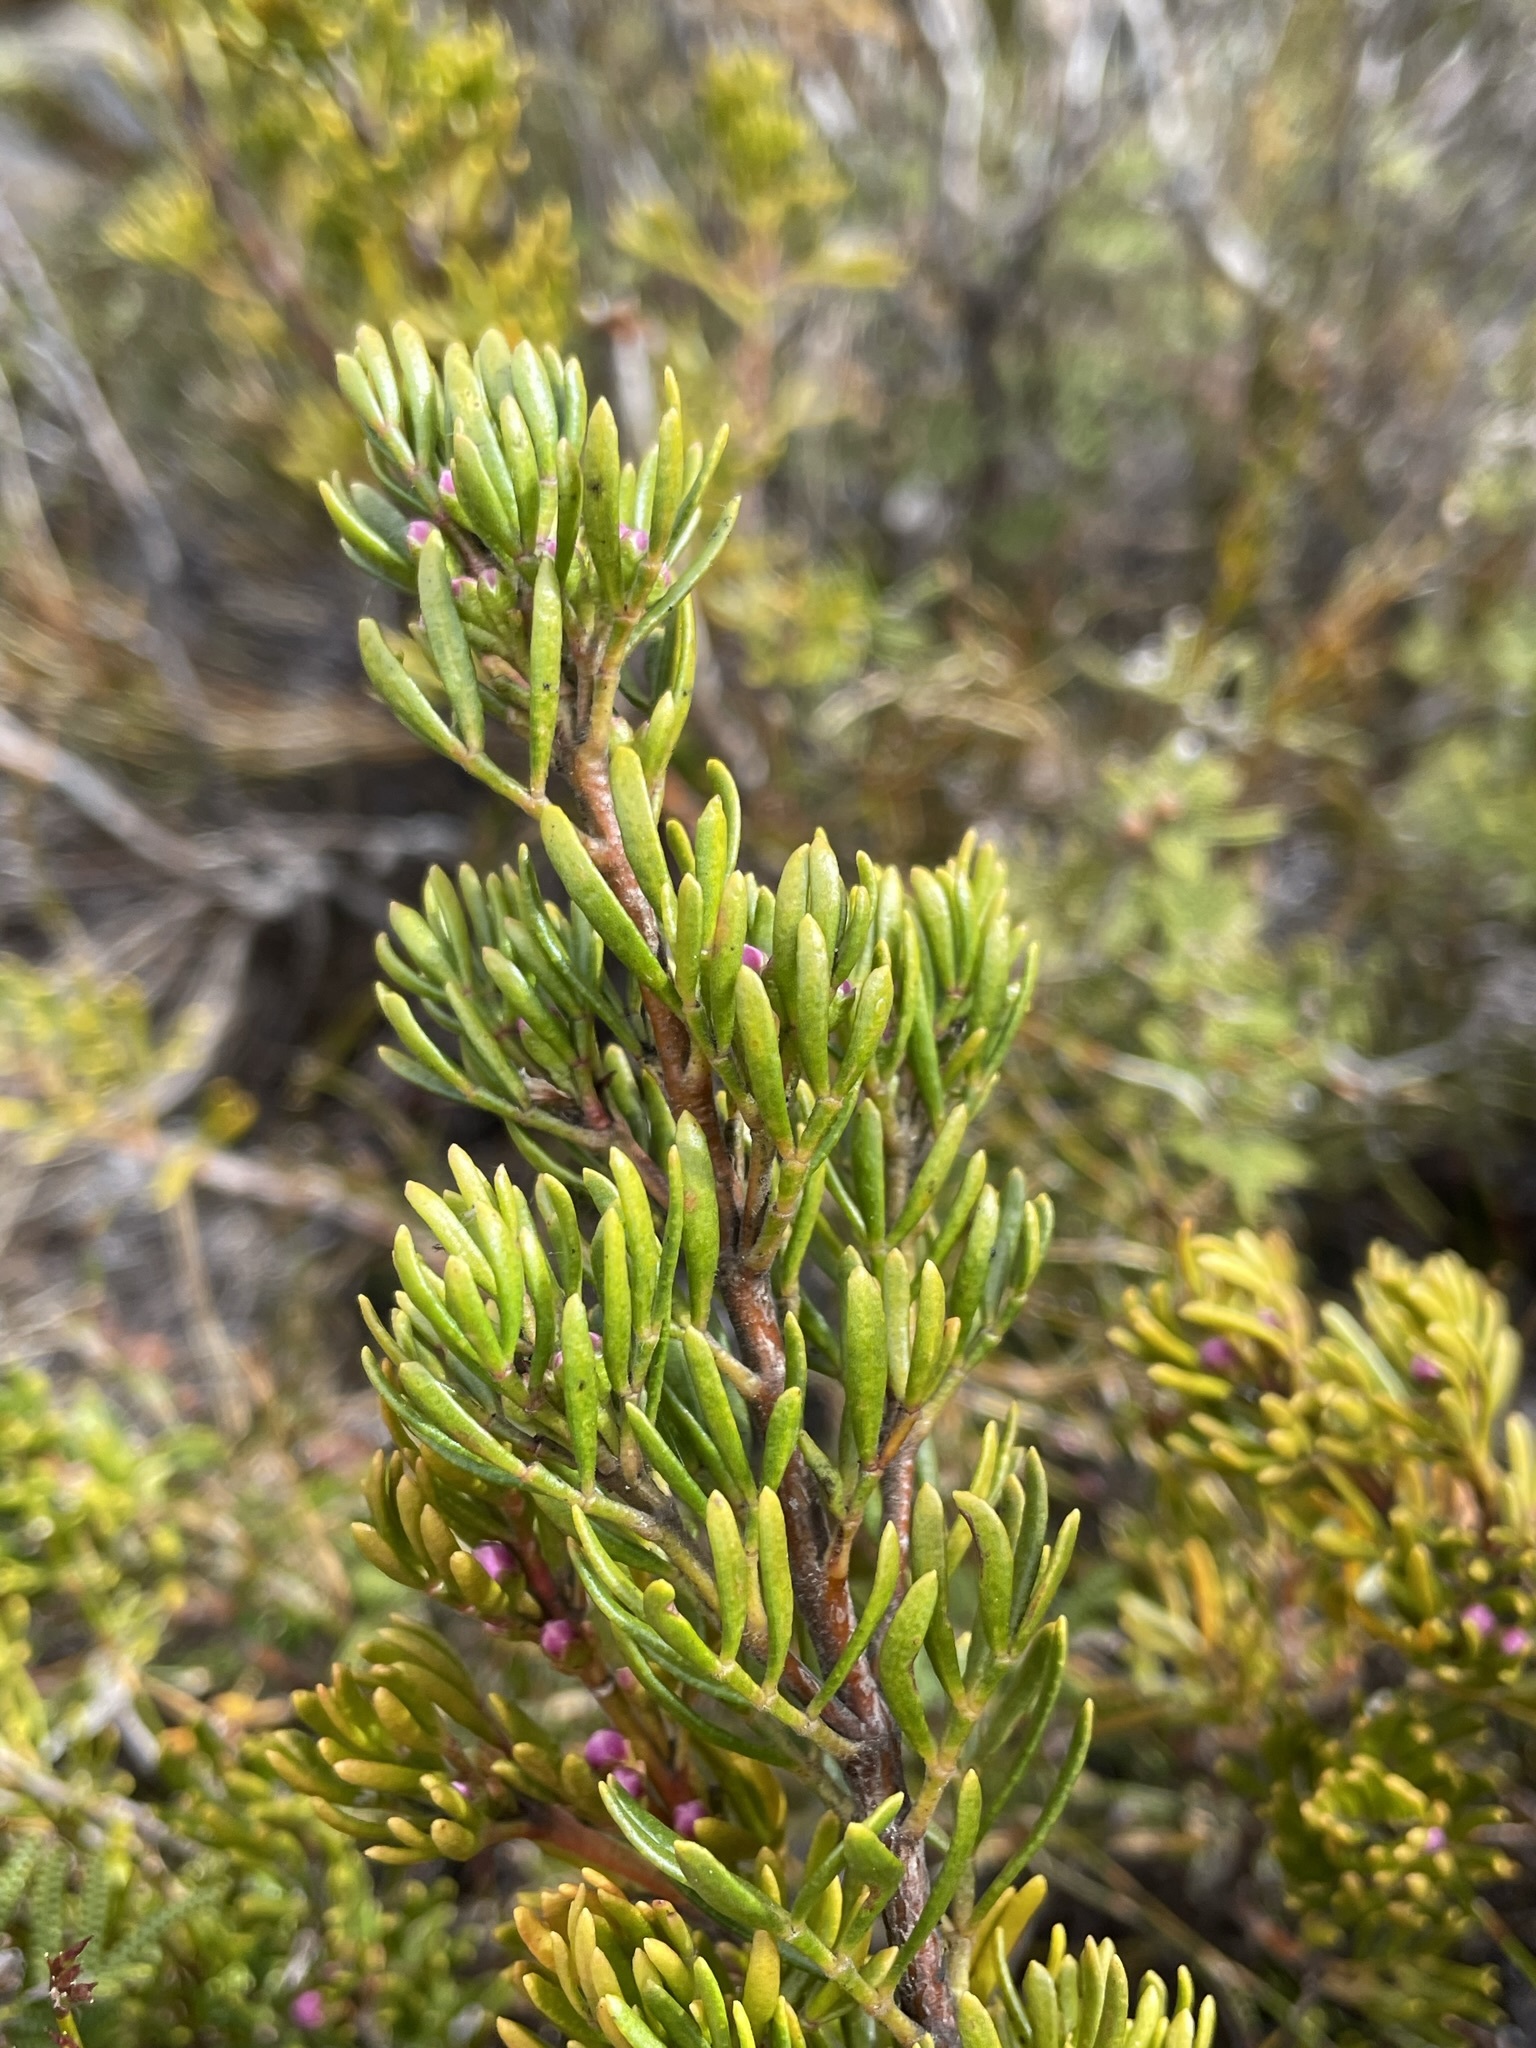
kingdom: Plantae
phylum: Tracheophyta
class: Magnoliopsida
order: Sapindales
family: Rutaceae
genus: Boronia
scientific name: Boronia citriodora
